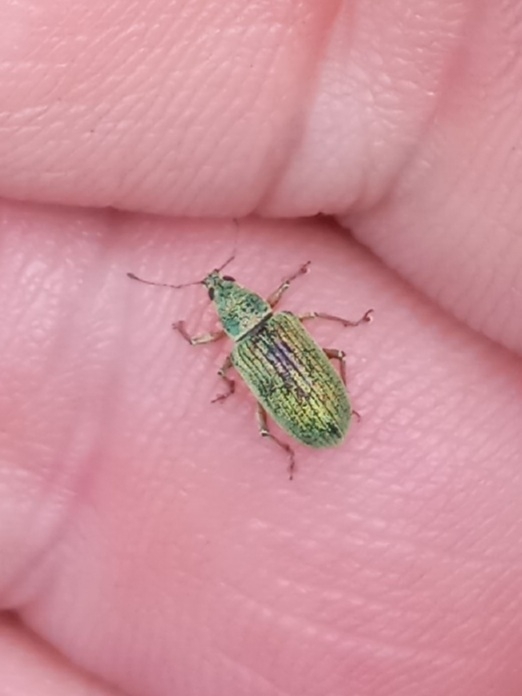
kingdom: Animalia
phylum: Arthropoda
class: Insecta
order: Coleoptera
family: Curculionidae
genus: Polydrusus
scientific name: Polydrusus formosus
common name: Weevil
